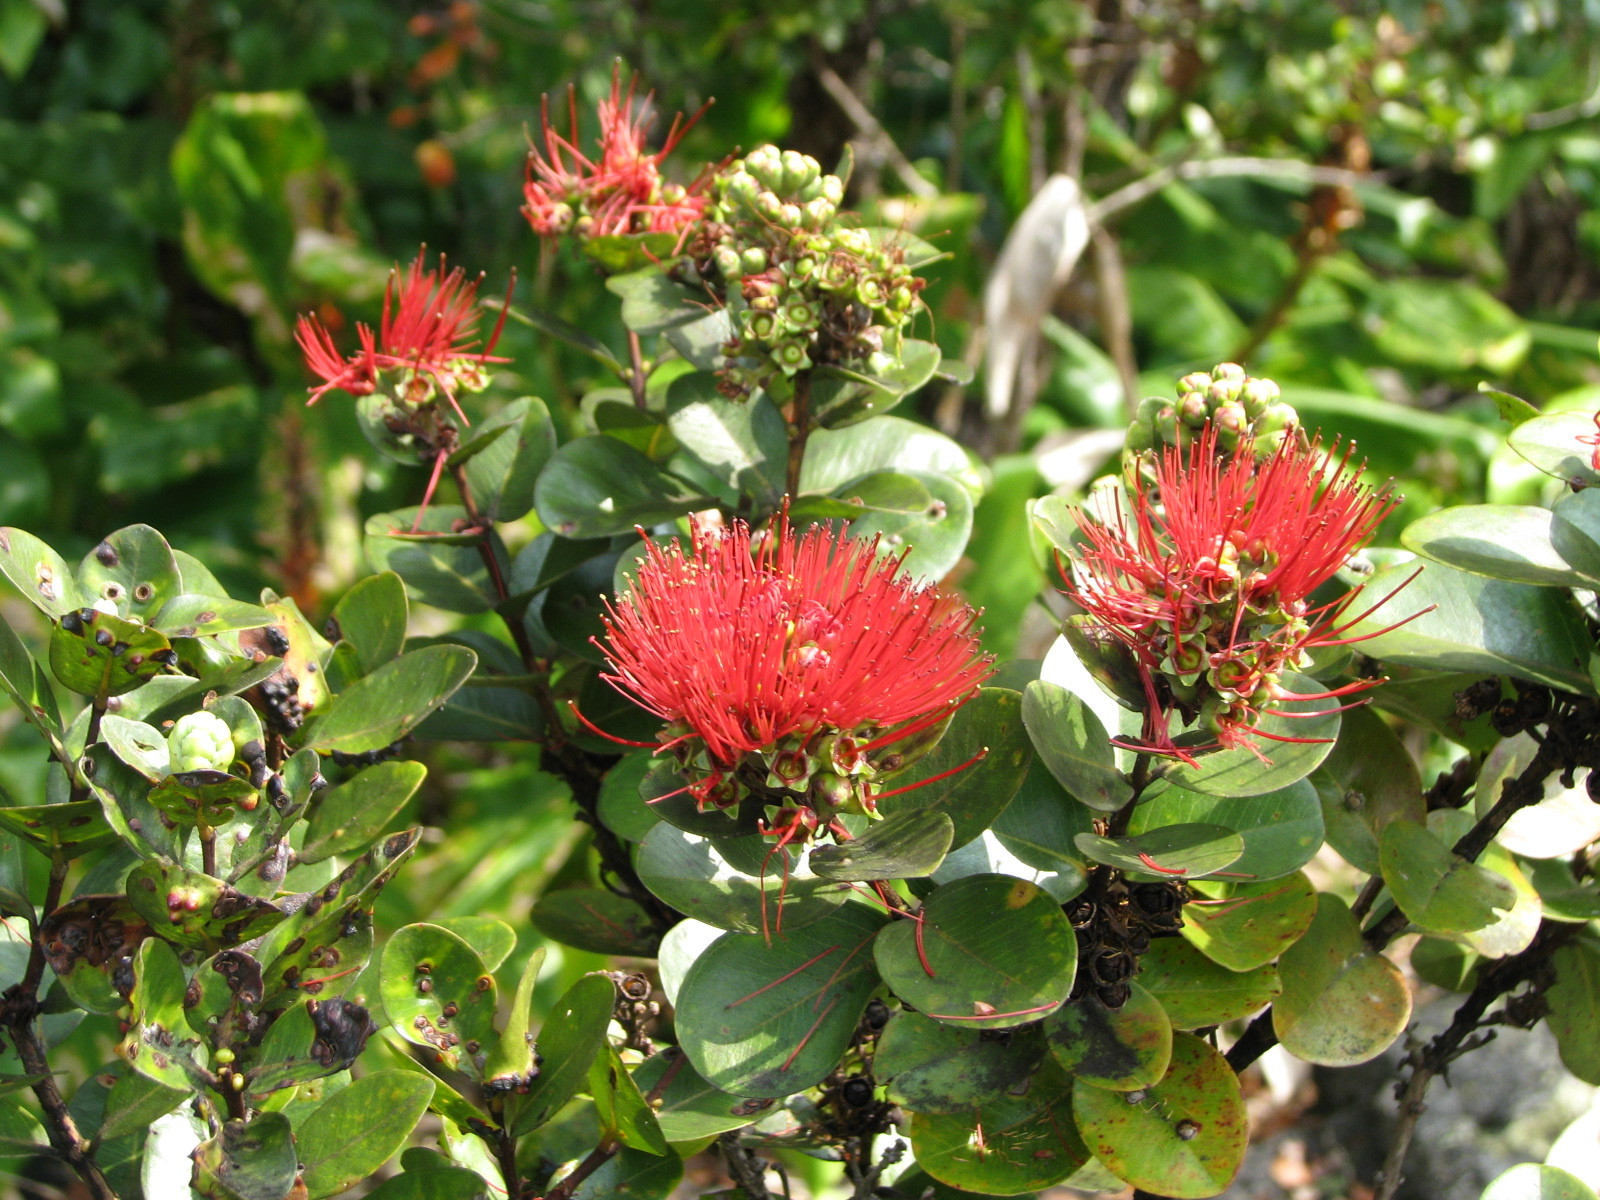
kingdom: Plantae
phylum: Tracheophyta
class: Magnoliopsida
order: Myrtales
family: Myrtaceae
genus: Metrosideros
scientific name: Metrosideros polymorpha
